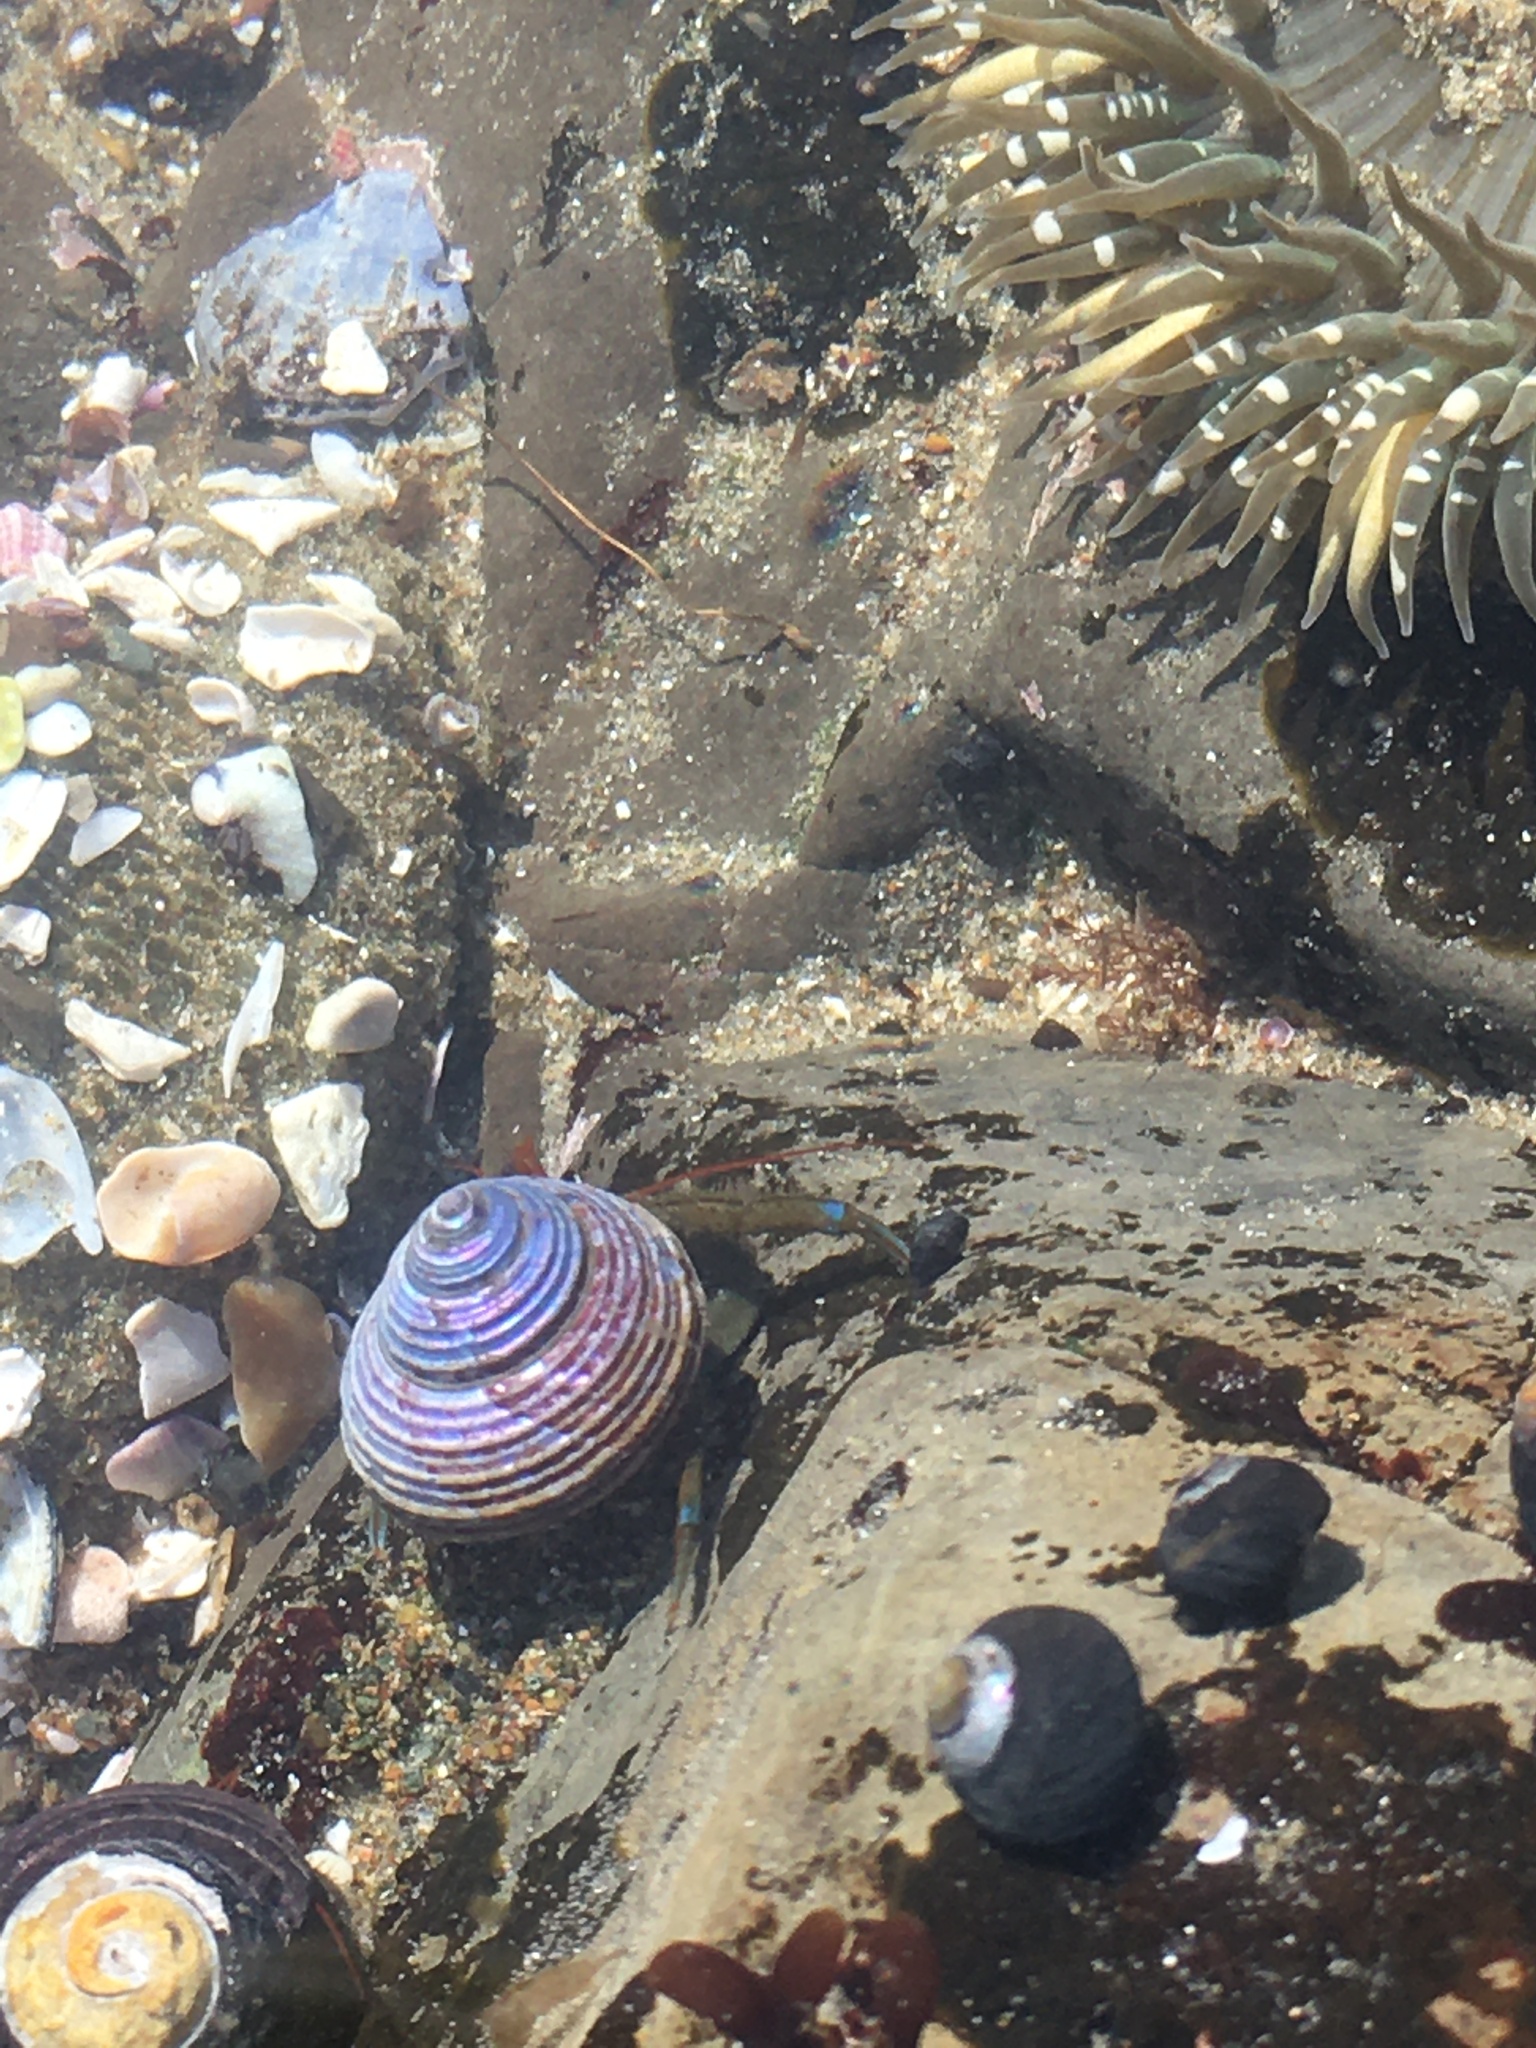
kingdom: Animalia
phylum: Mollusca
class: Gastropoda
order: Trochida
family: Calliostomatidae
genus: Calliostoma
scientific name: Calliostoma ligatum
